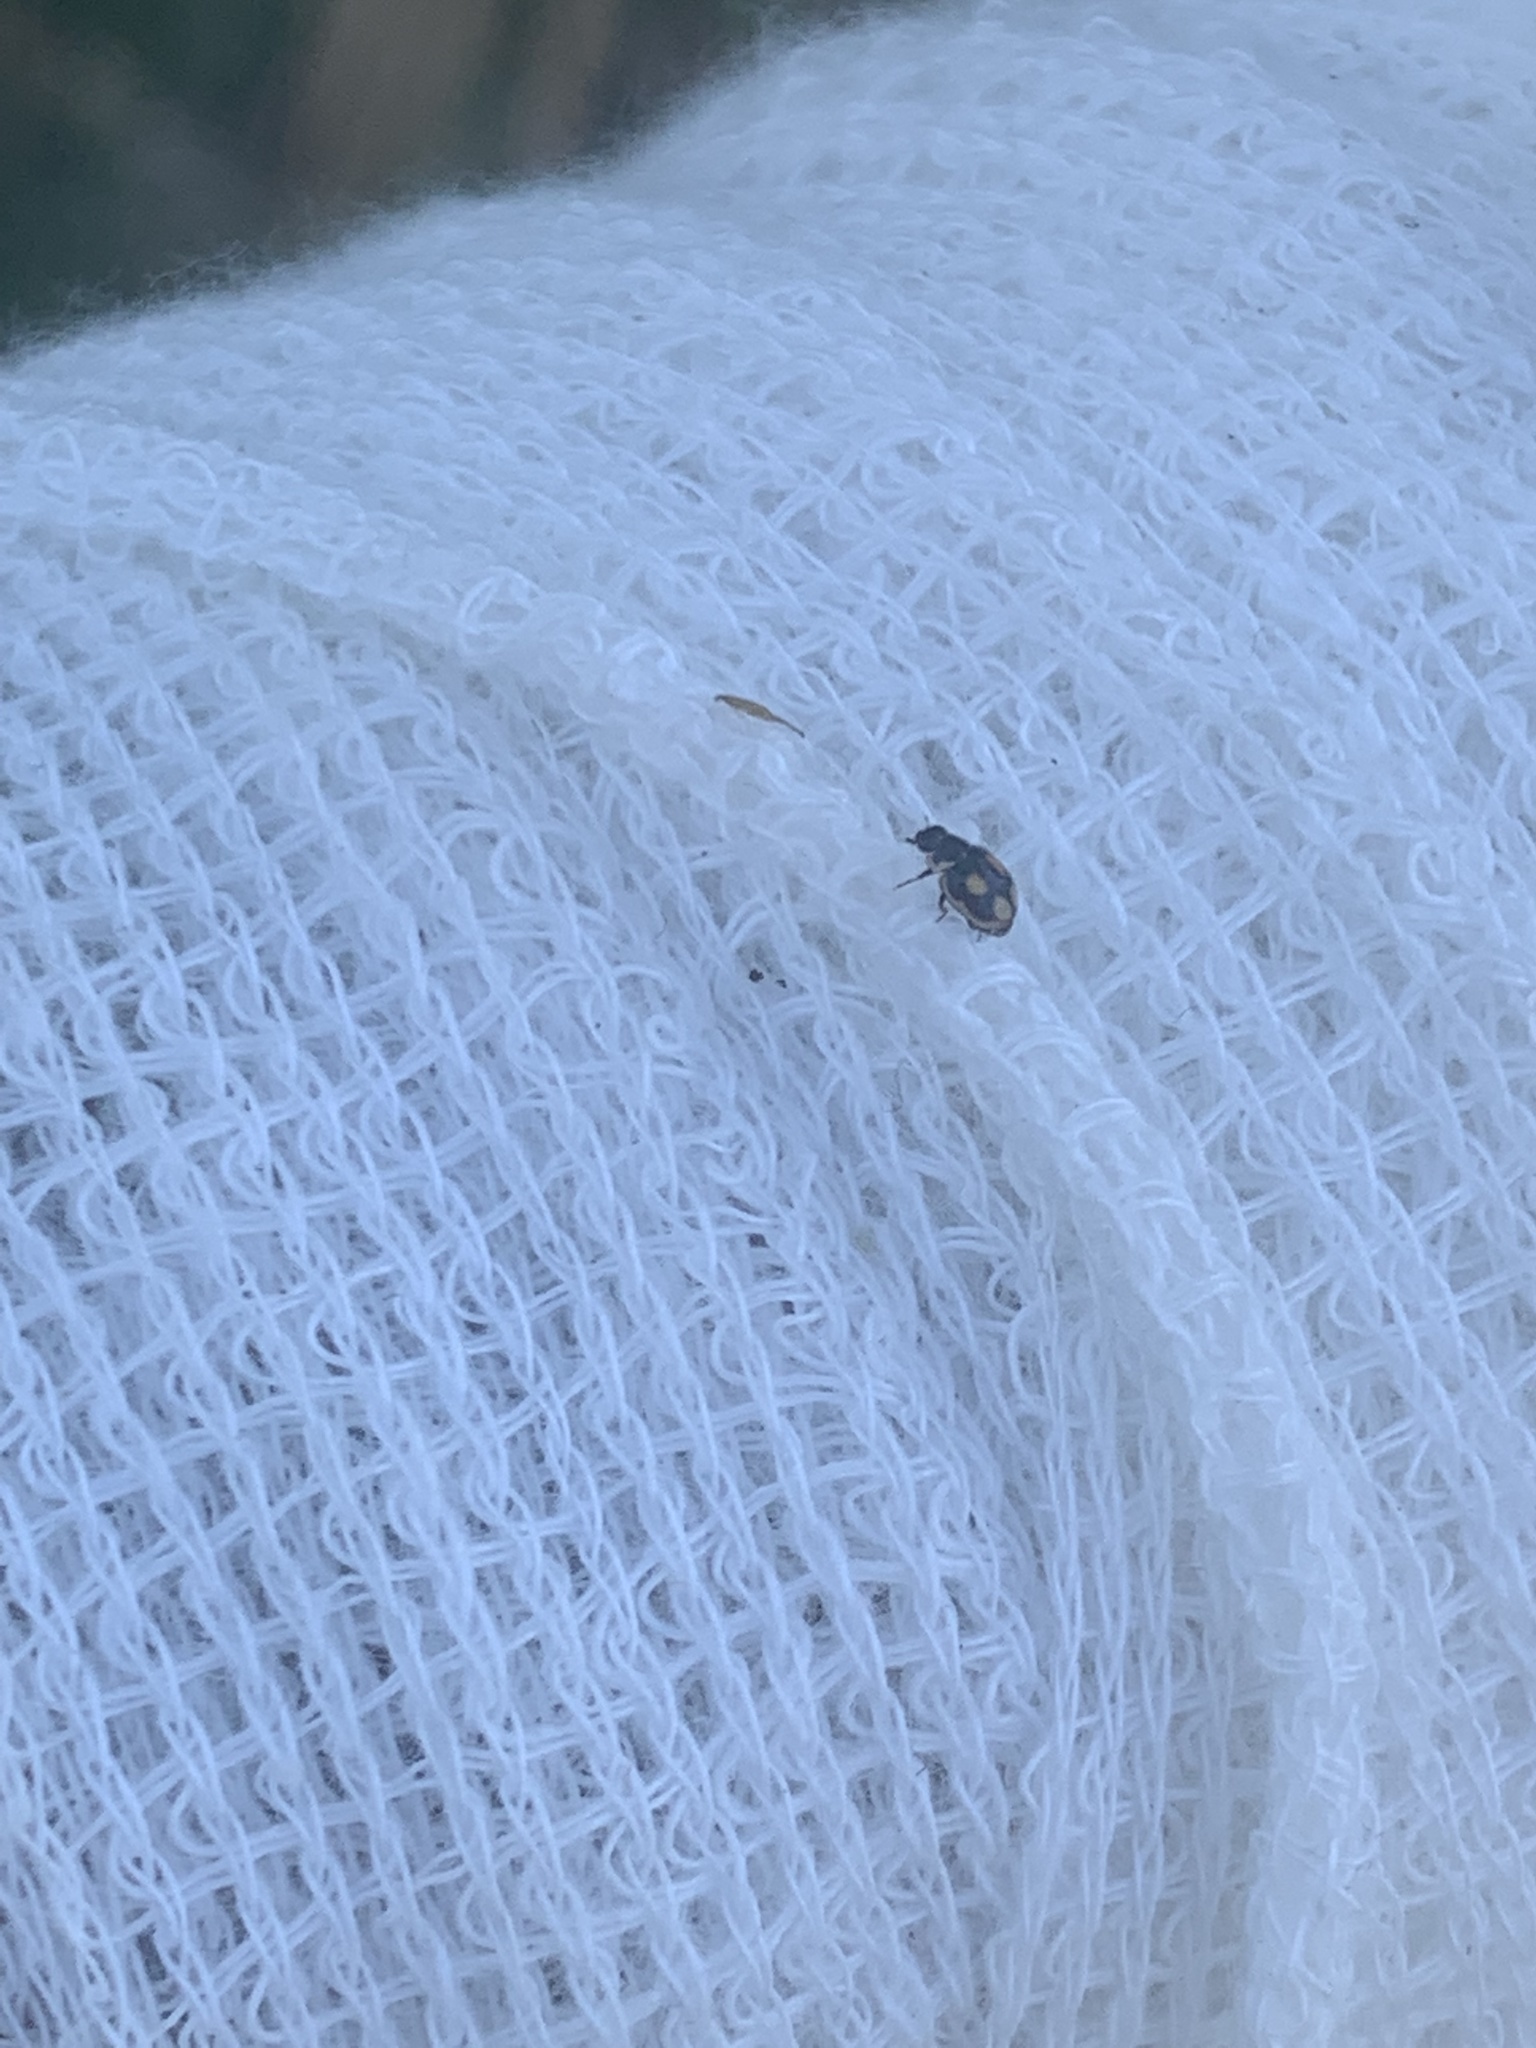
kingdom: Animalia
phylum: Arthropoda
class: Insecta
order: Coleoptera
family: Coccinellidae
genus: Hyperaspis
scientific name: Hyperaspis festiva
